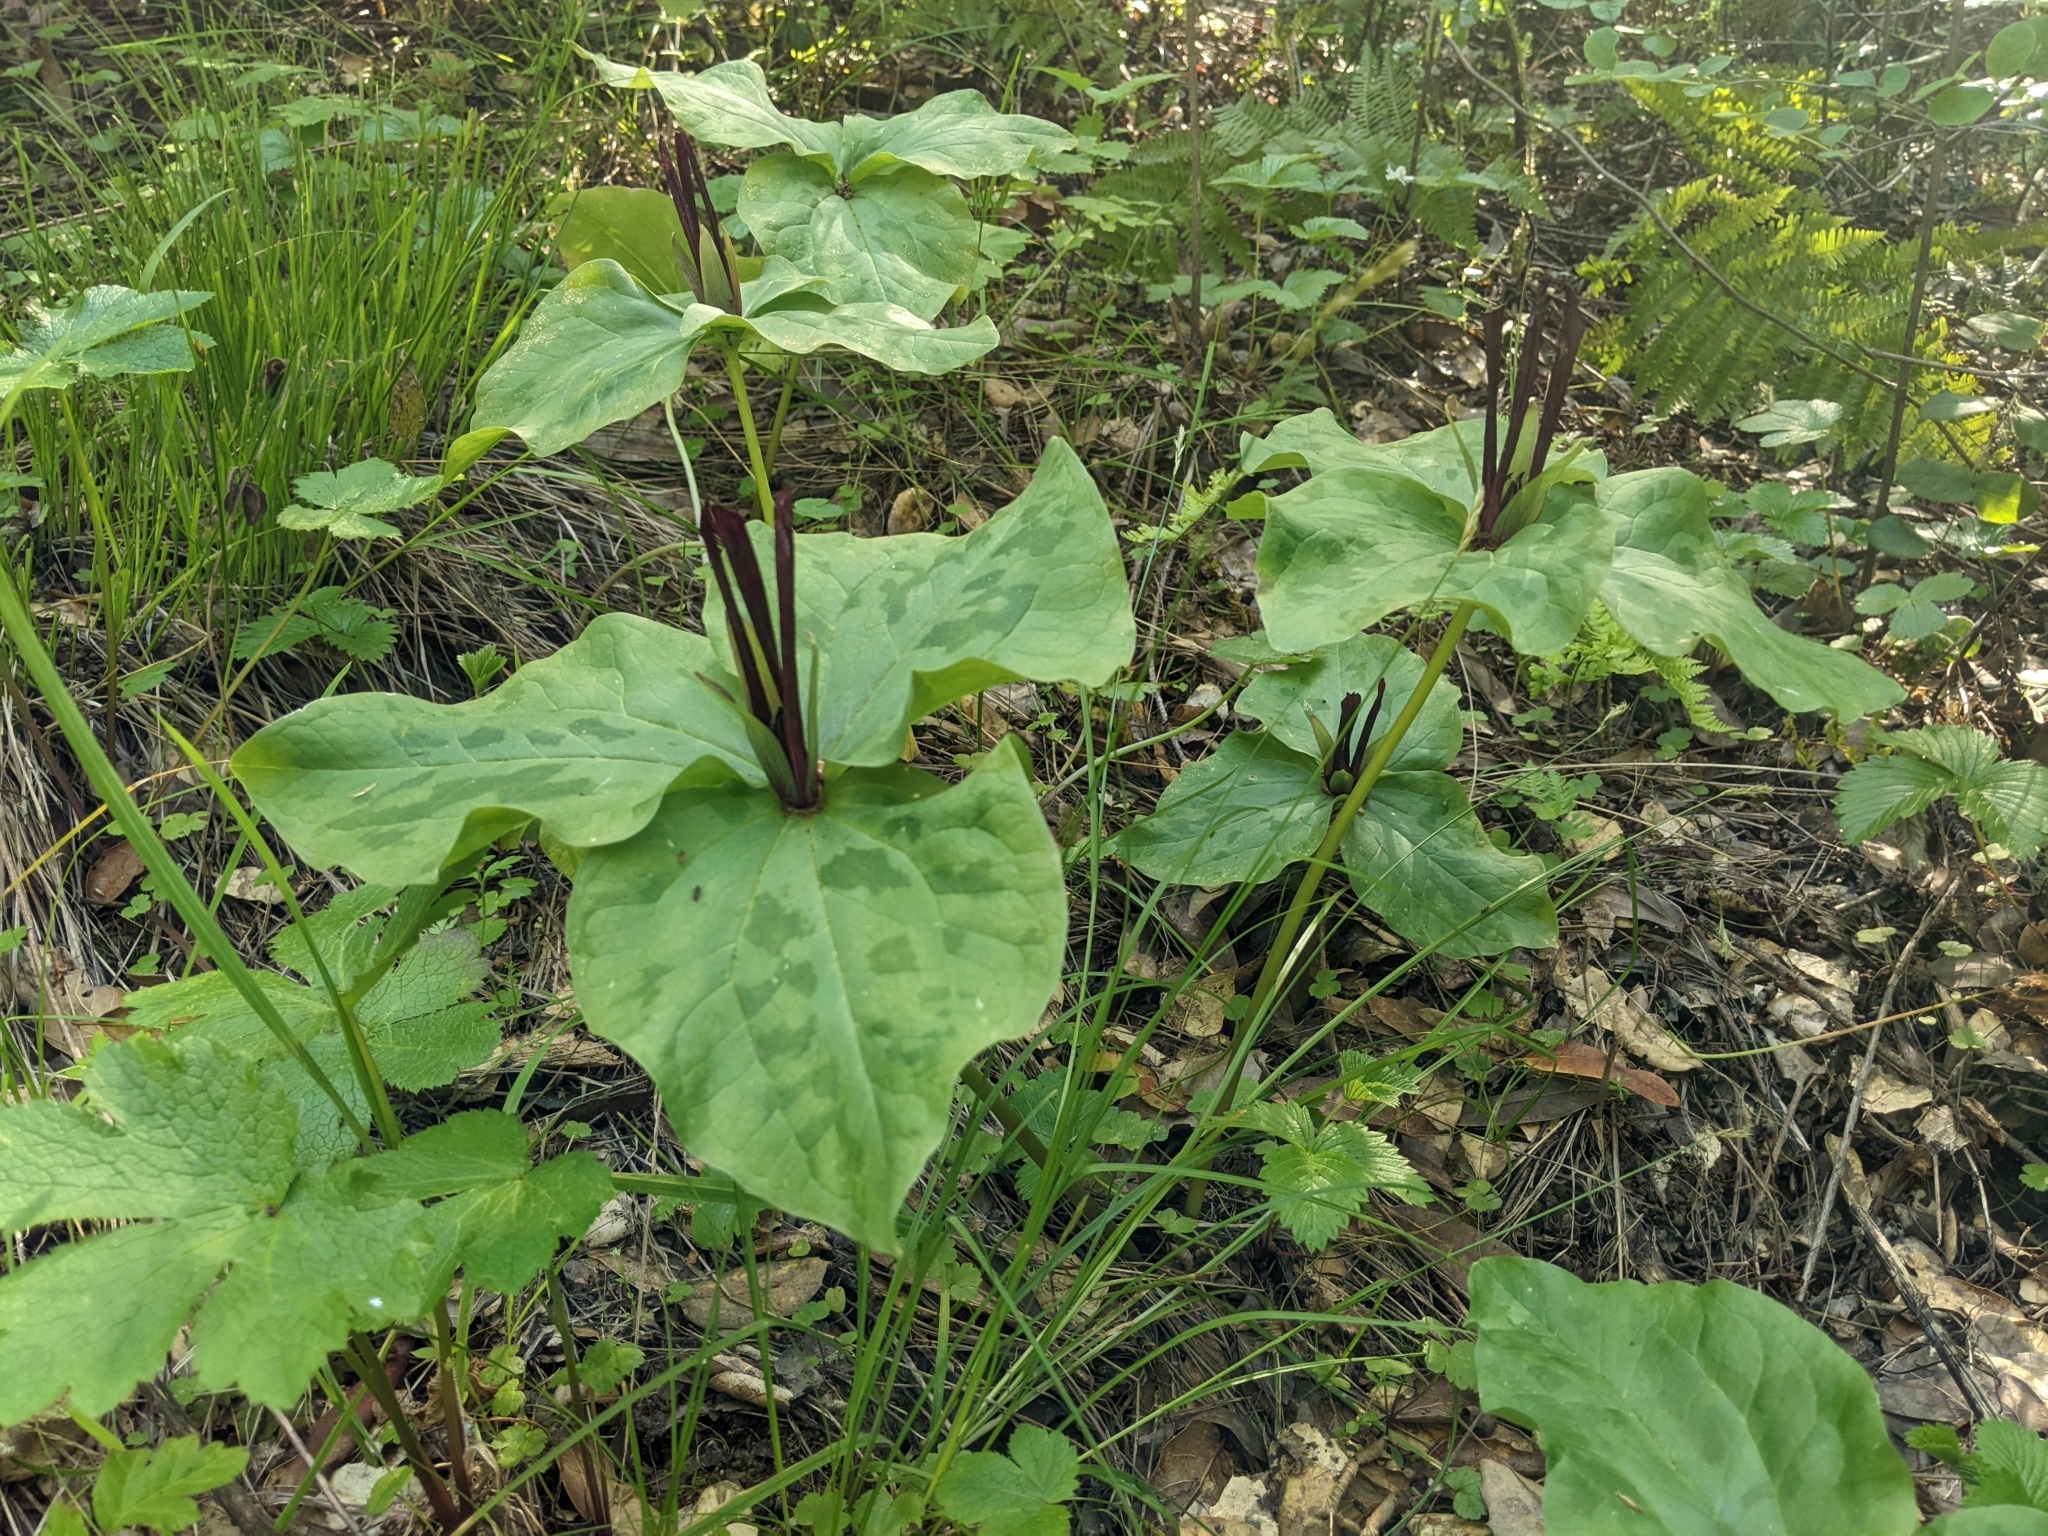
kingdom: Plantae
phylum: Tracheophyta
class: Liliopsida
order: Liliales
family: Melanthiaceae
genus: Trillium
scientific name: Trillium chloropetalum
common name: Giant trillium
